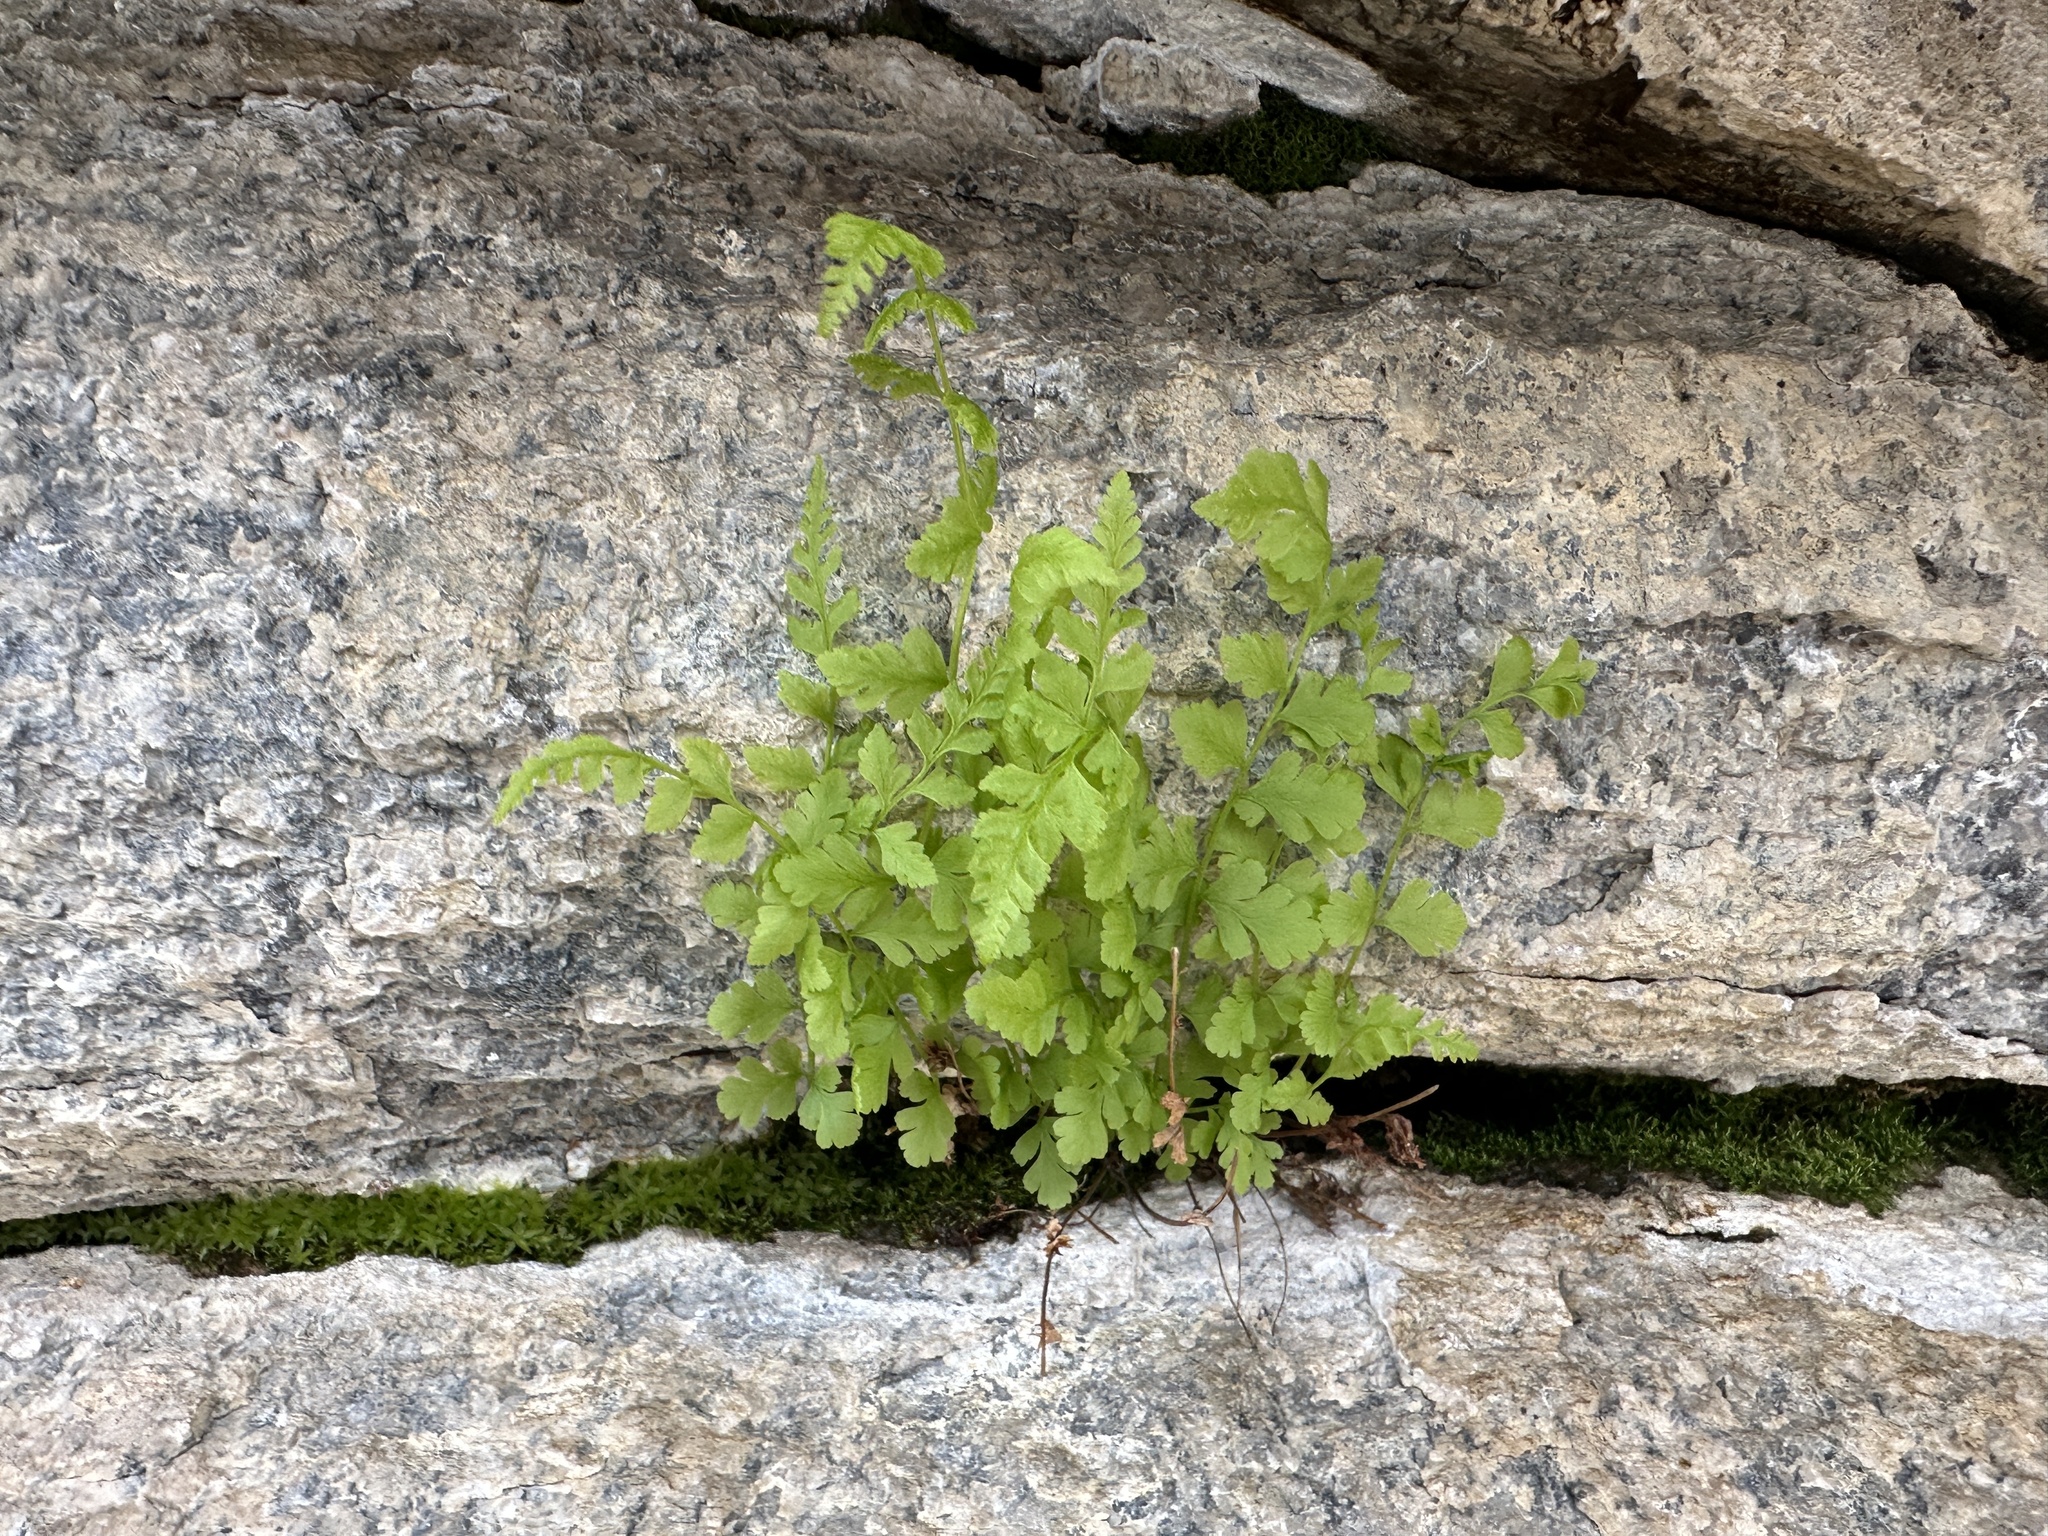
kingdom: Plantae
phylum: Tracheophyta
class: Polypodiopsida
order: Polypodiales
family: Cystopteridaceae
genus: Cystopteris
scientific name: Cystopteris fragilis
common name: Brittle bladder fern
